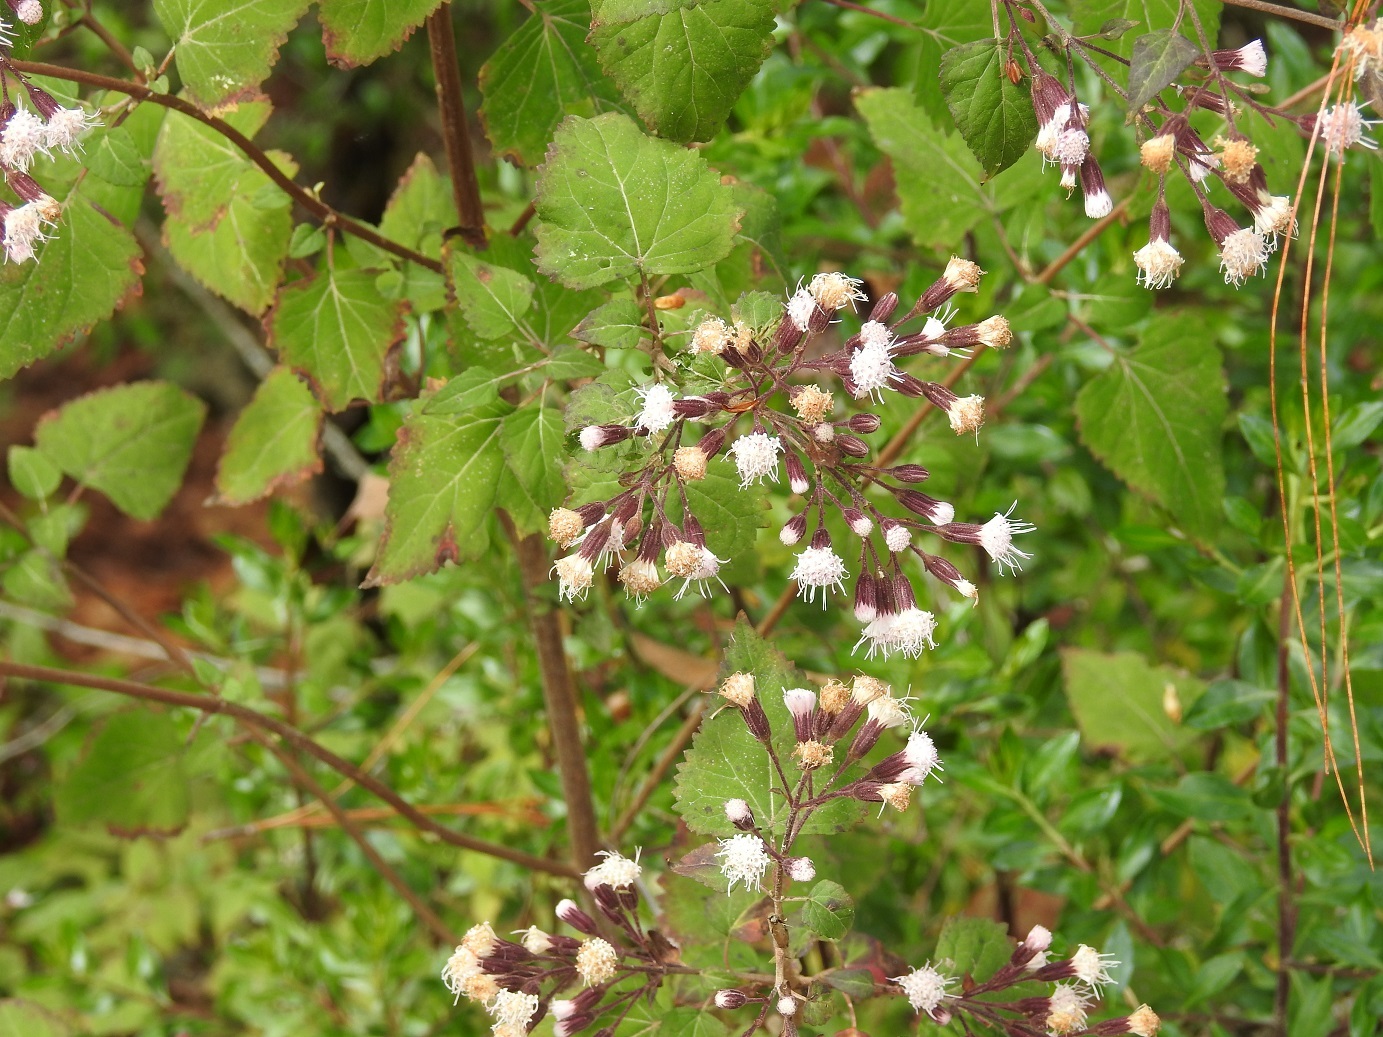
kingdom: Plantae
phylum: Tracheophyta
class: Magnoliopsida
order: Asterales
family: Asteraceae
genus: Ageratina
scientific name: Ageratina mairetiana
